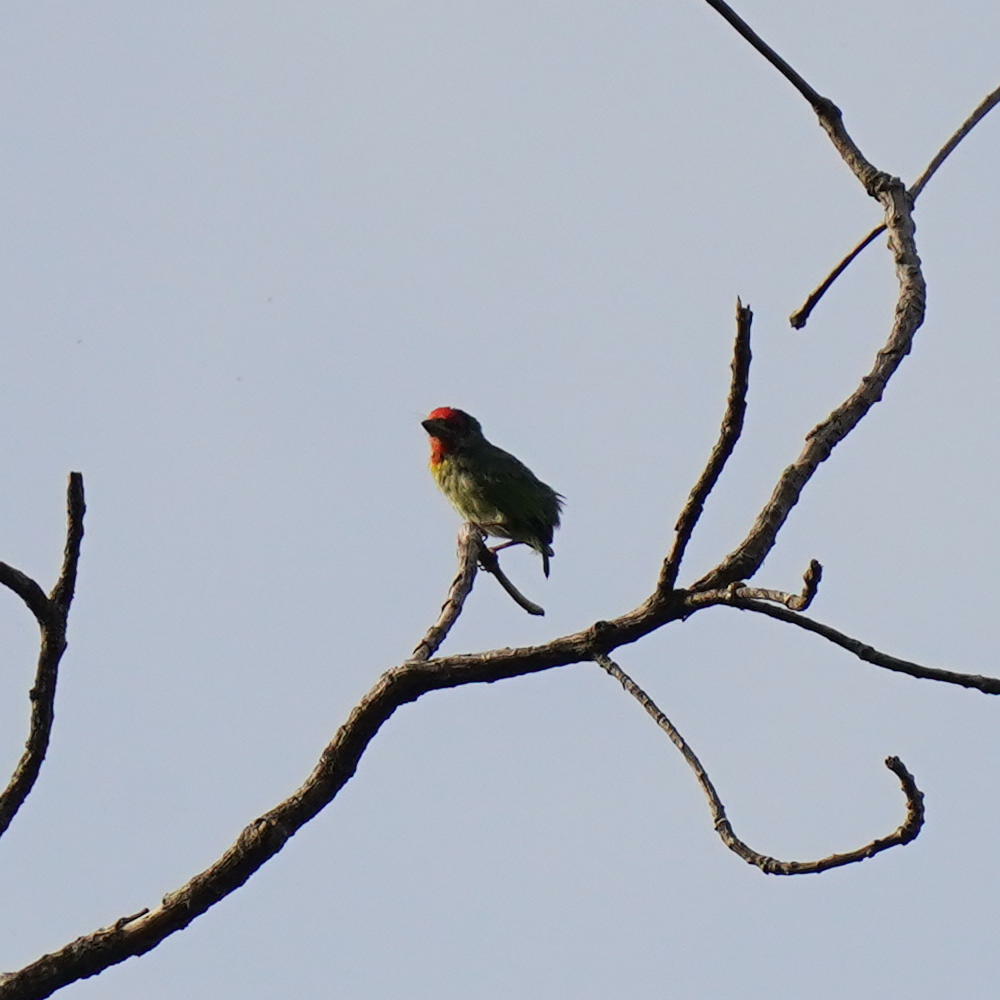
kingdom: Animalia
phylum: Chordata
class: Aves
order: Piciformes
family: Megalaimidae
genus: Psilopogon
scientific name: Psilopogon malabaricus
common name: Malabar barbet
